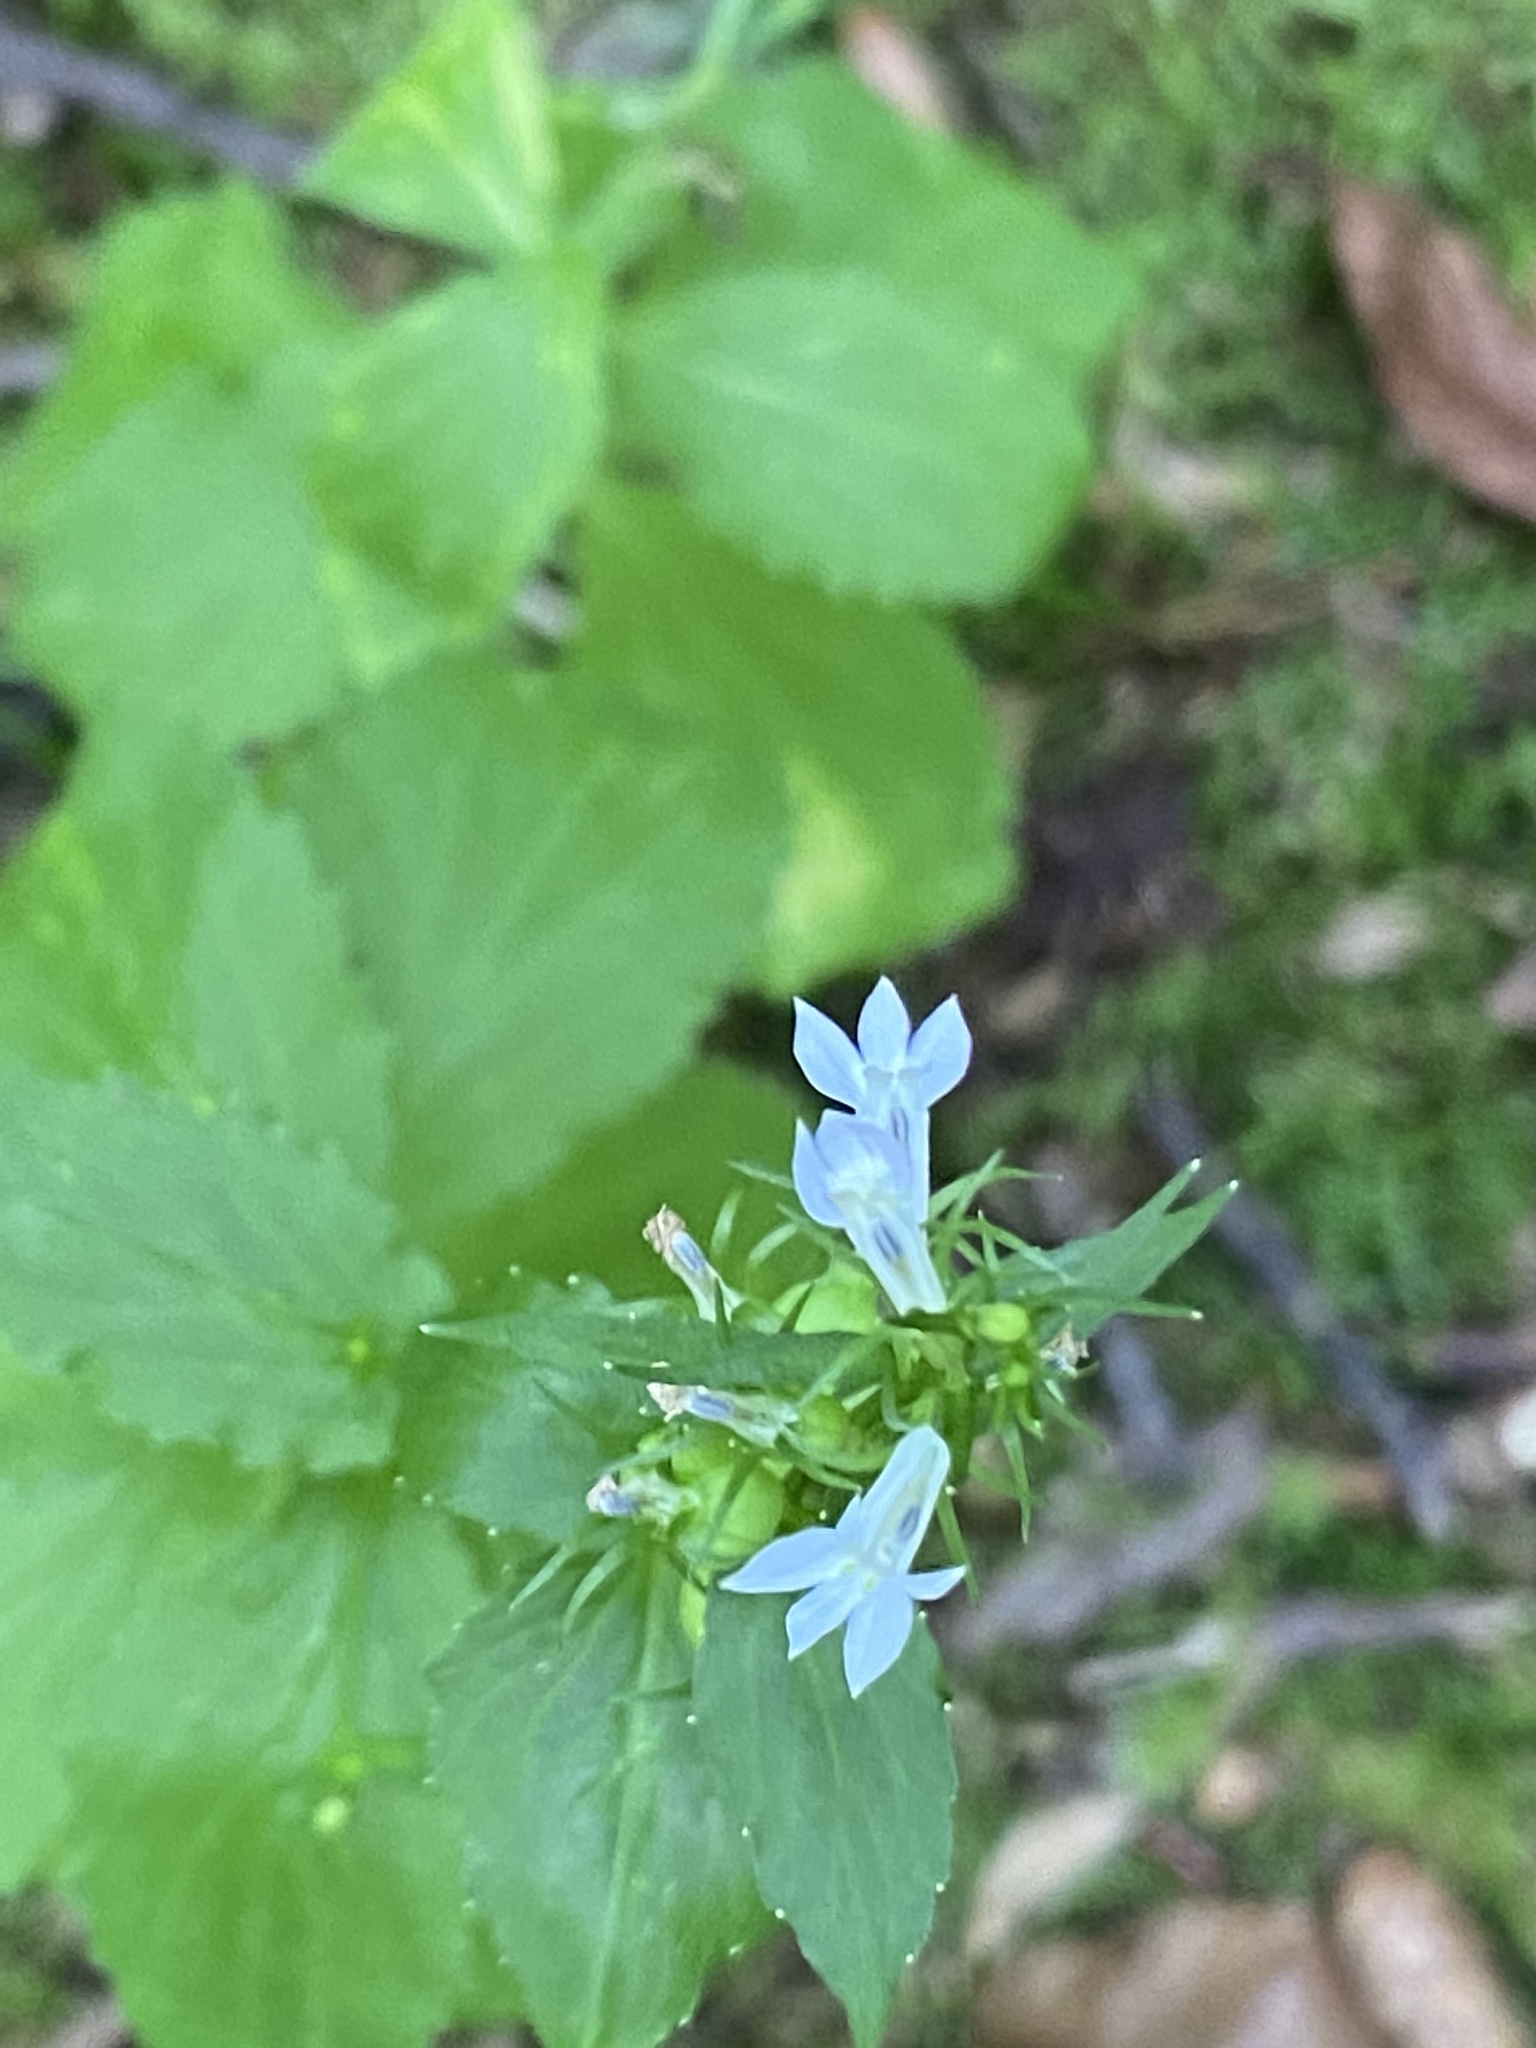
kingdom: Plantae
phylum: Tracheophyta
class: Magnoliopsida
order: Asterales
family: Campanulaceae
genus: Lobelia
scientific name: Lobelia inflata
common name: Indian tobacco
